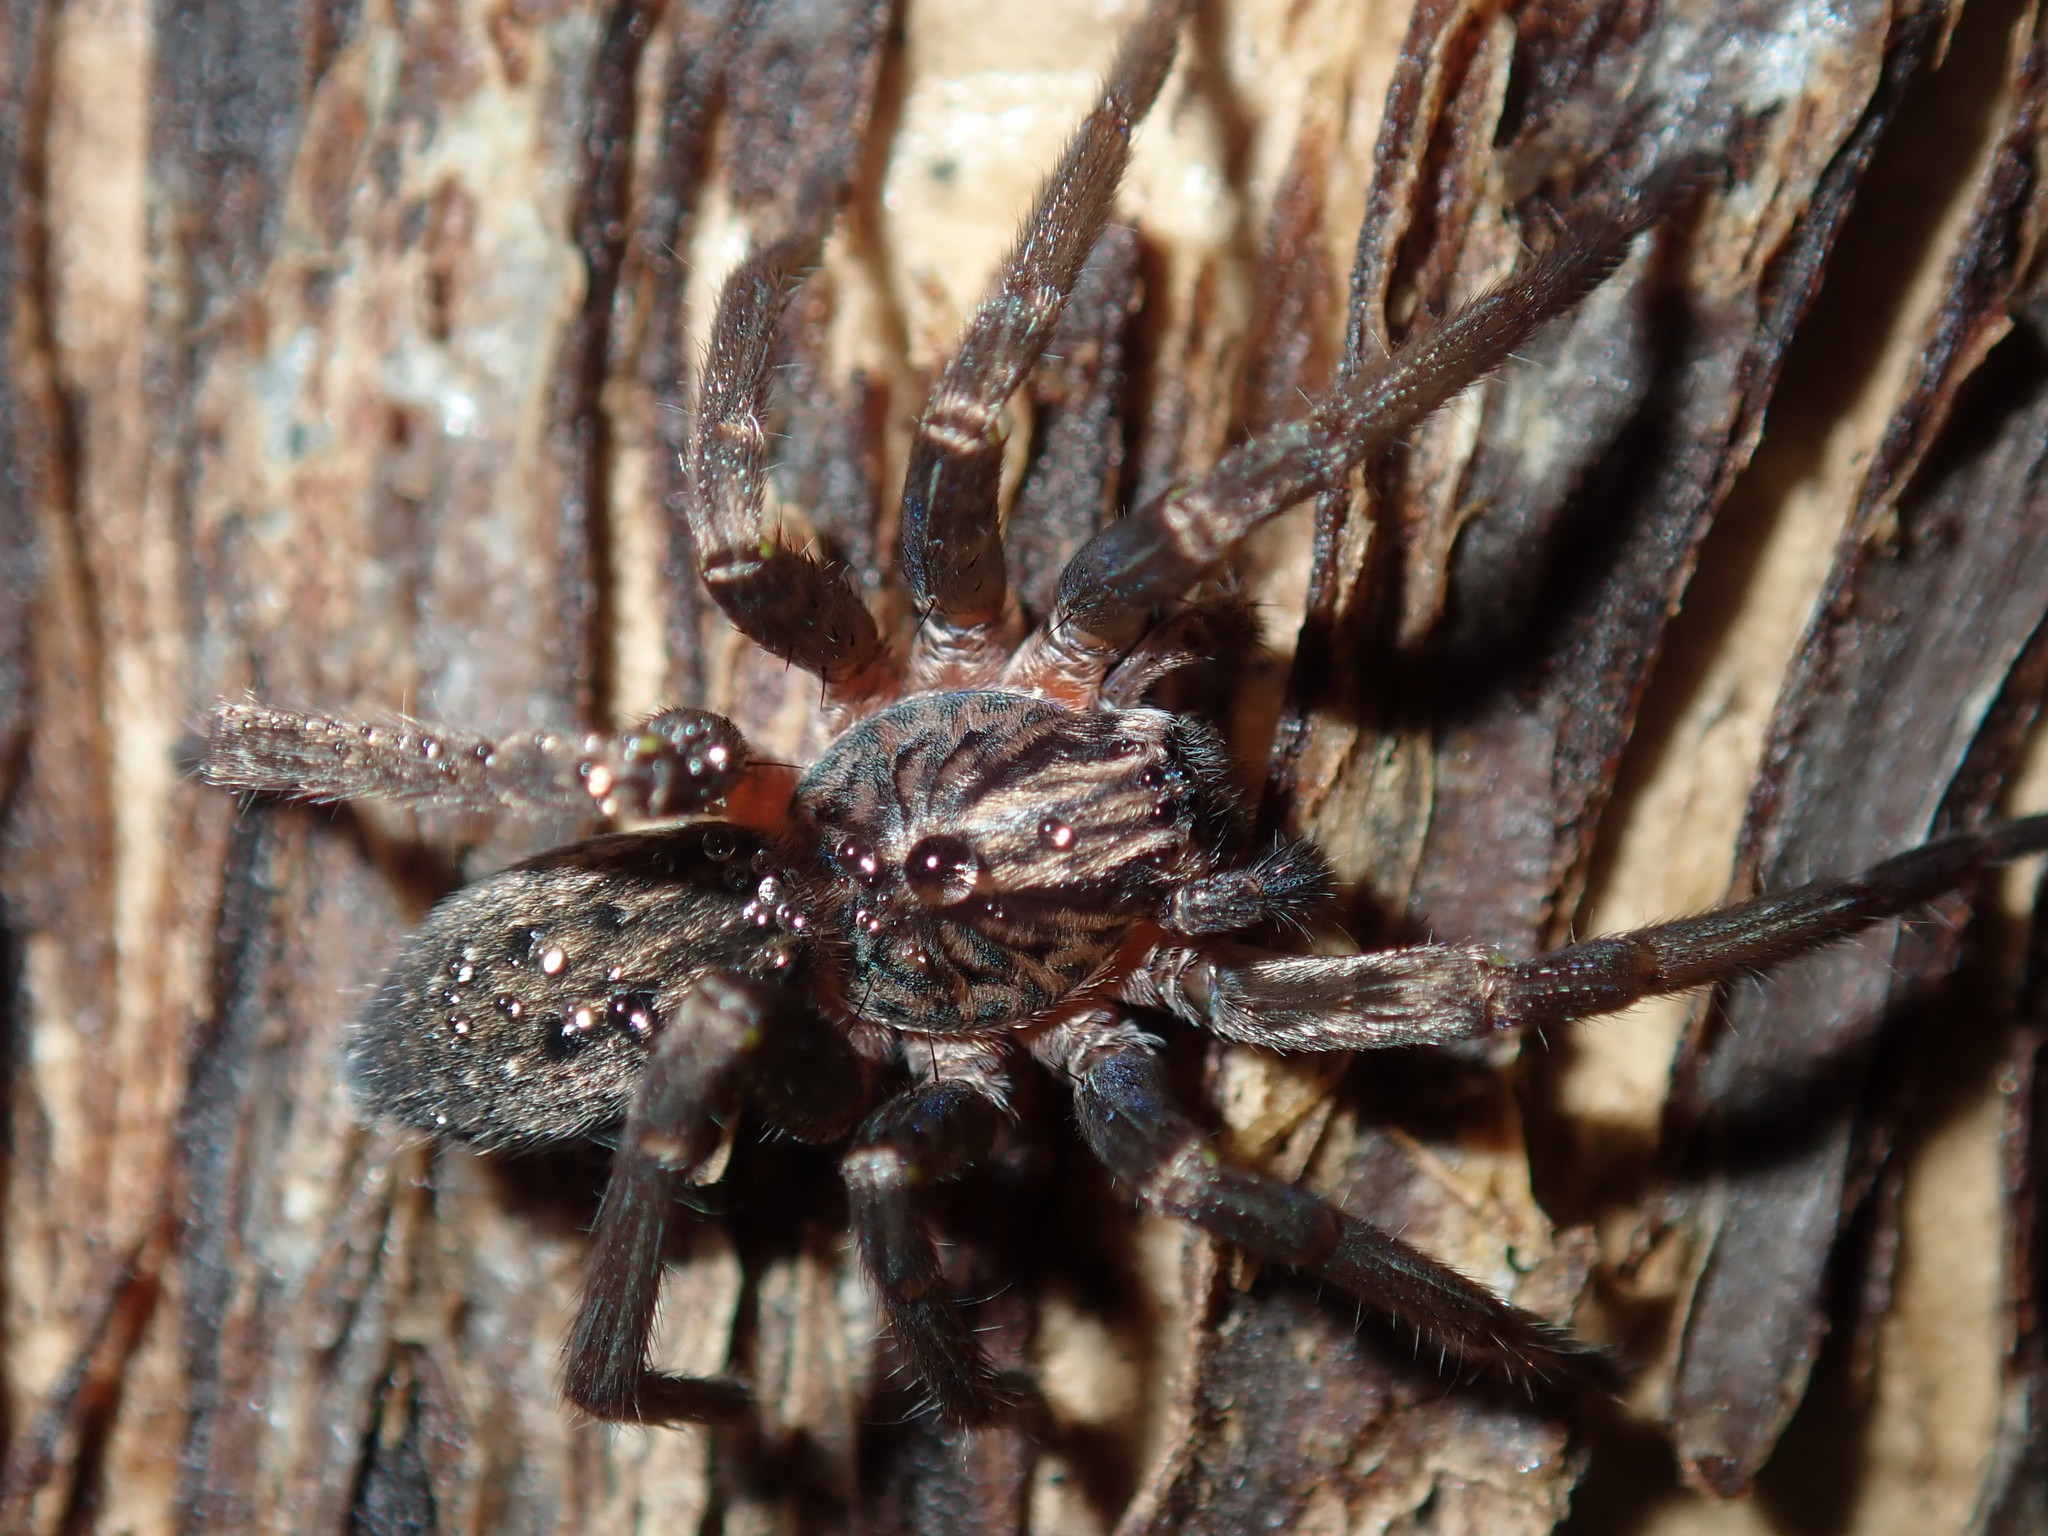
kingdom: Animalia
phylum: Arthropoda
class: Arachnida
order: Araneae
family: Miturgidae
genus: Mituliodon
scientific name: Mituliodon tarantulinus
